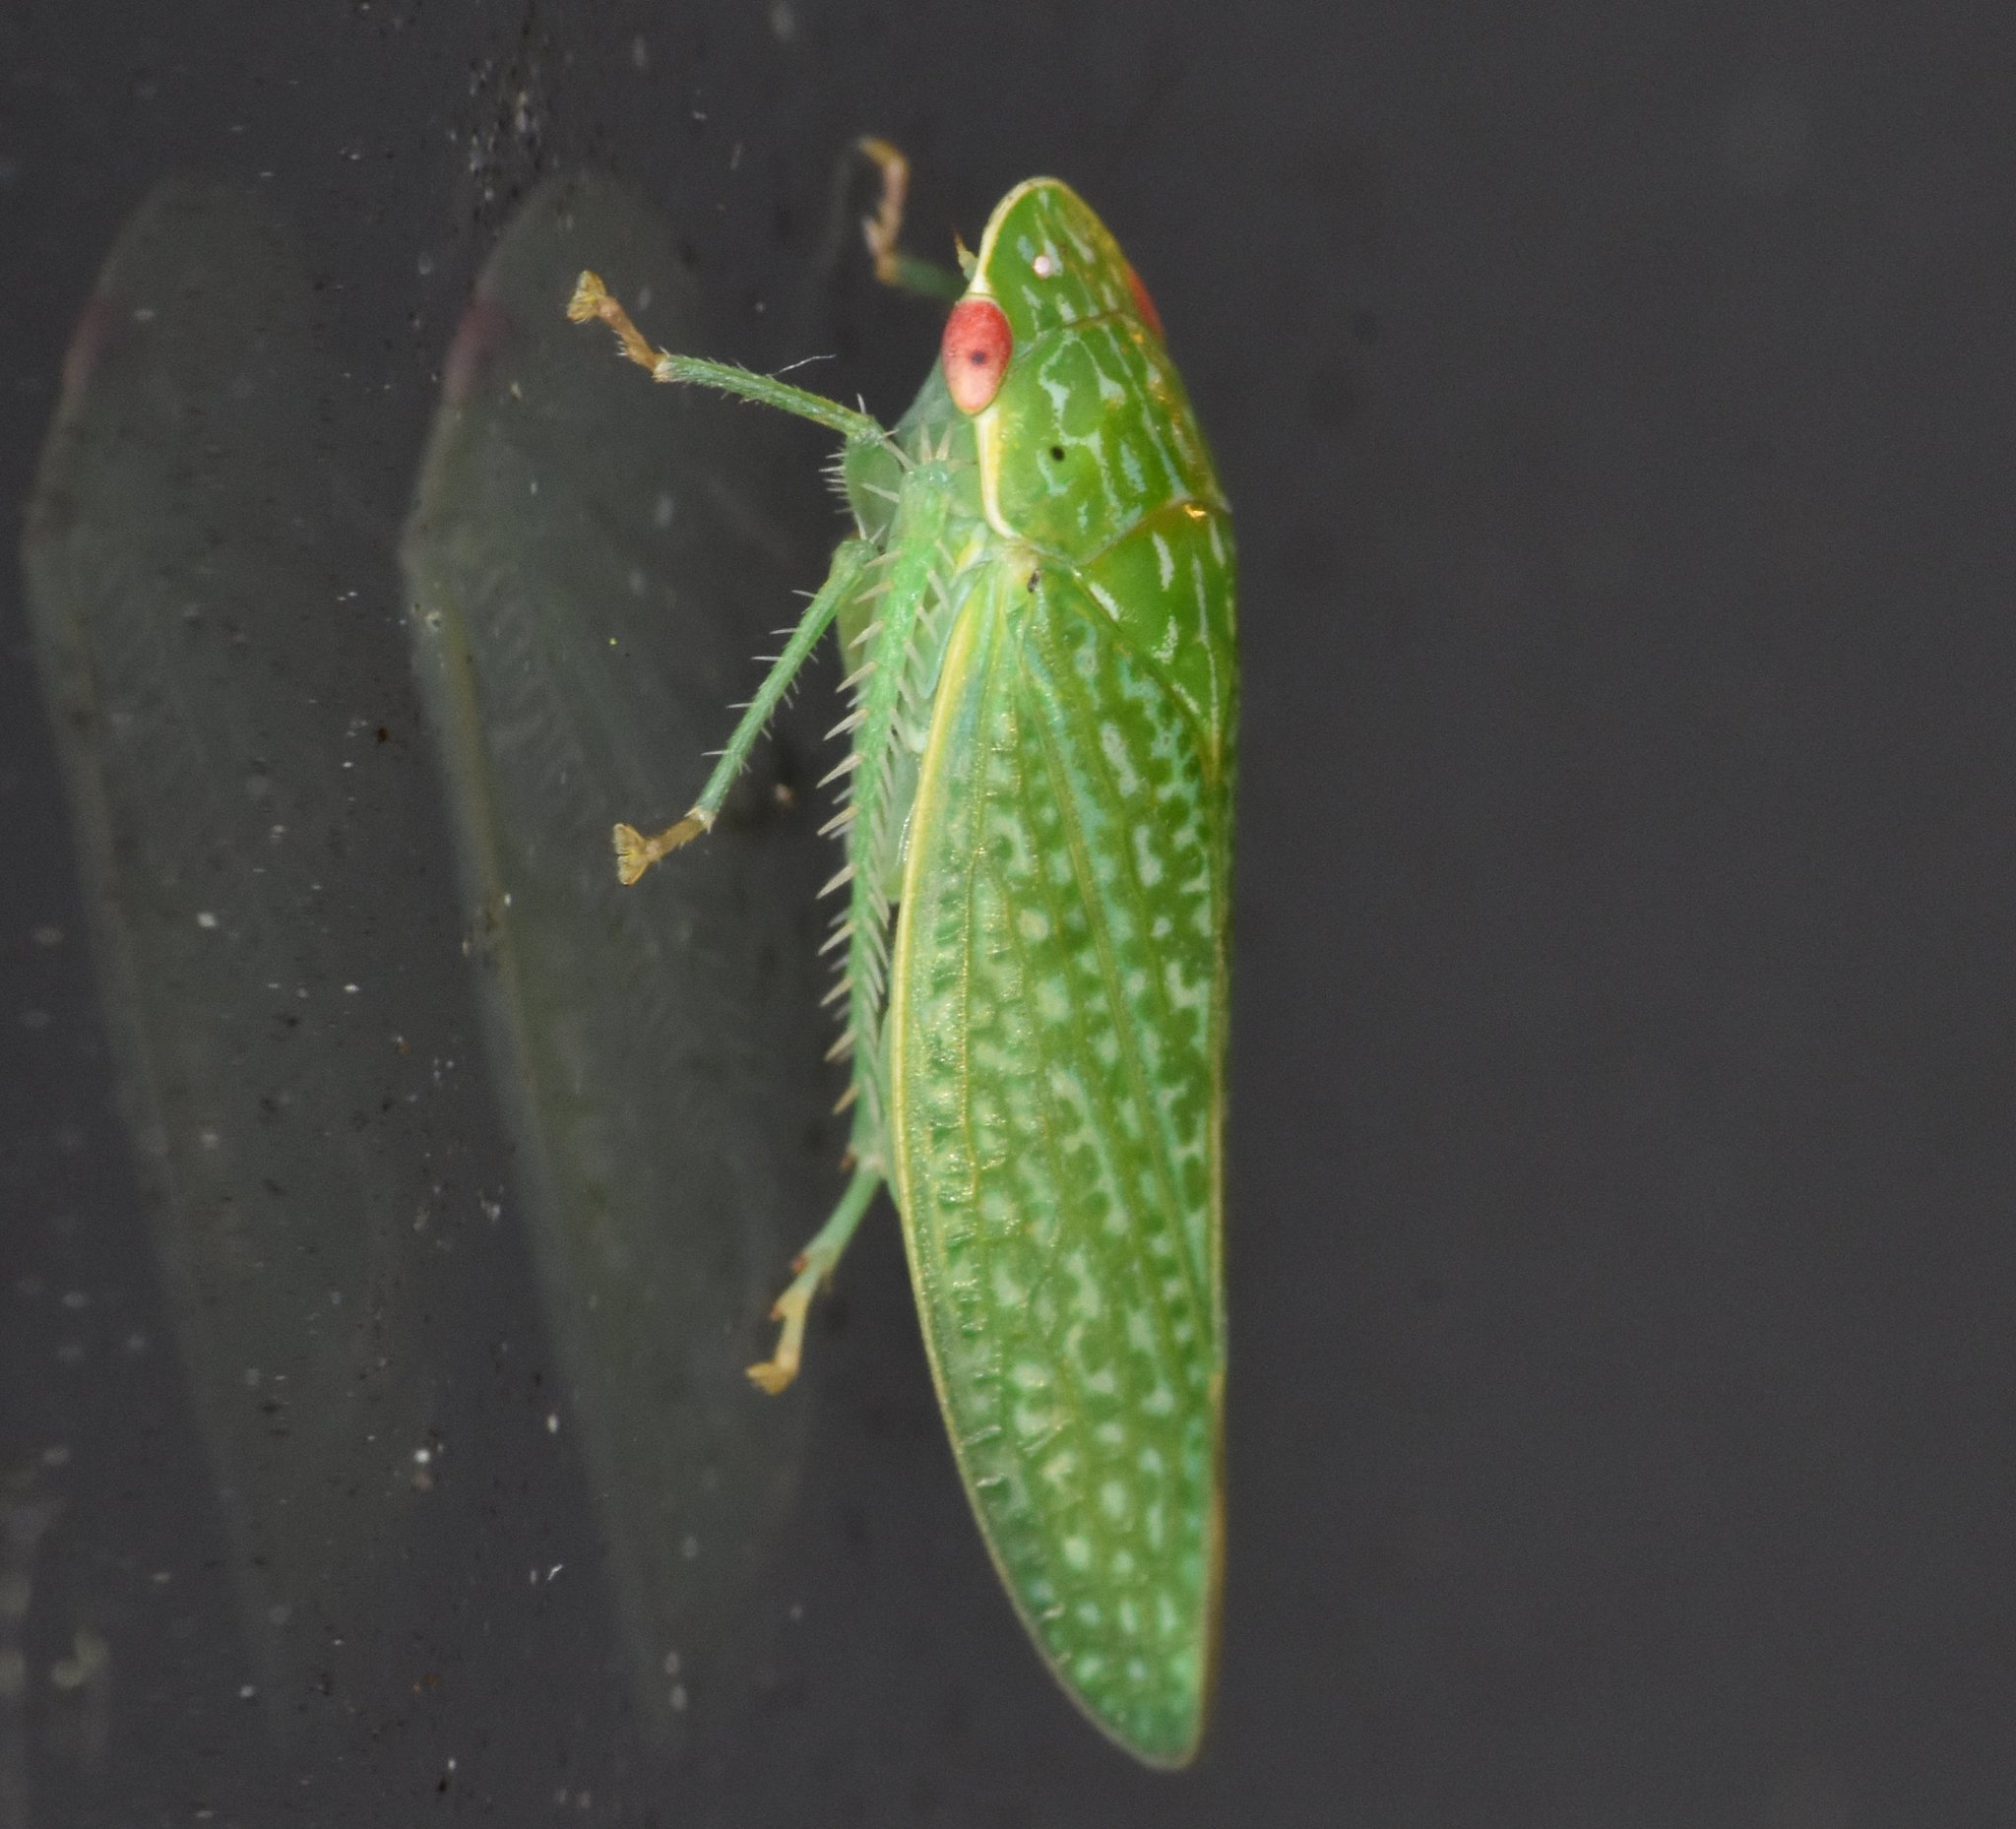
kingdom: Animalia
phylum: Arthropoda
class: Insecta
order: Hemiptera
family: Cicadellidae
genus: Rugosana
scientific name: Rugosana querci
